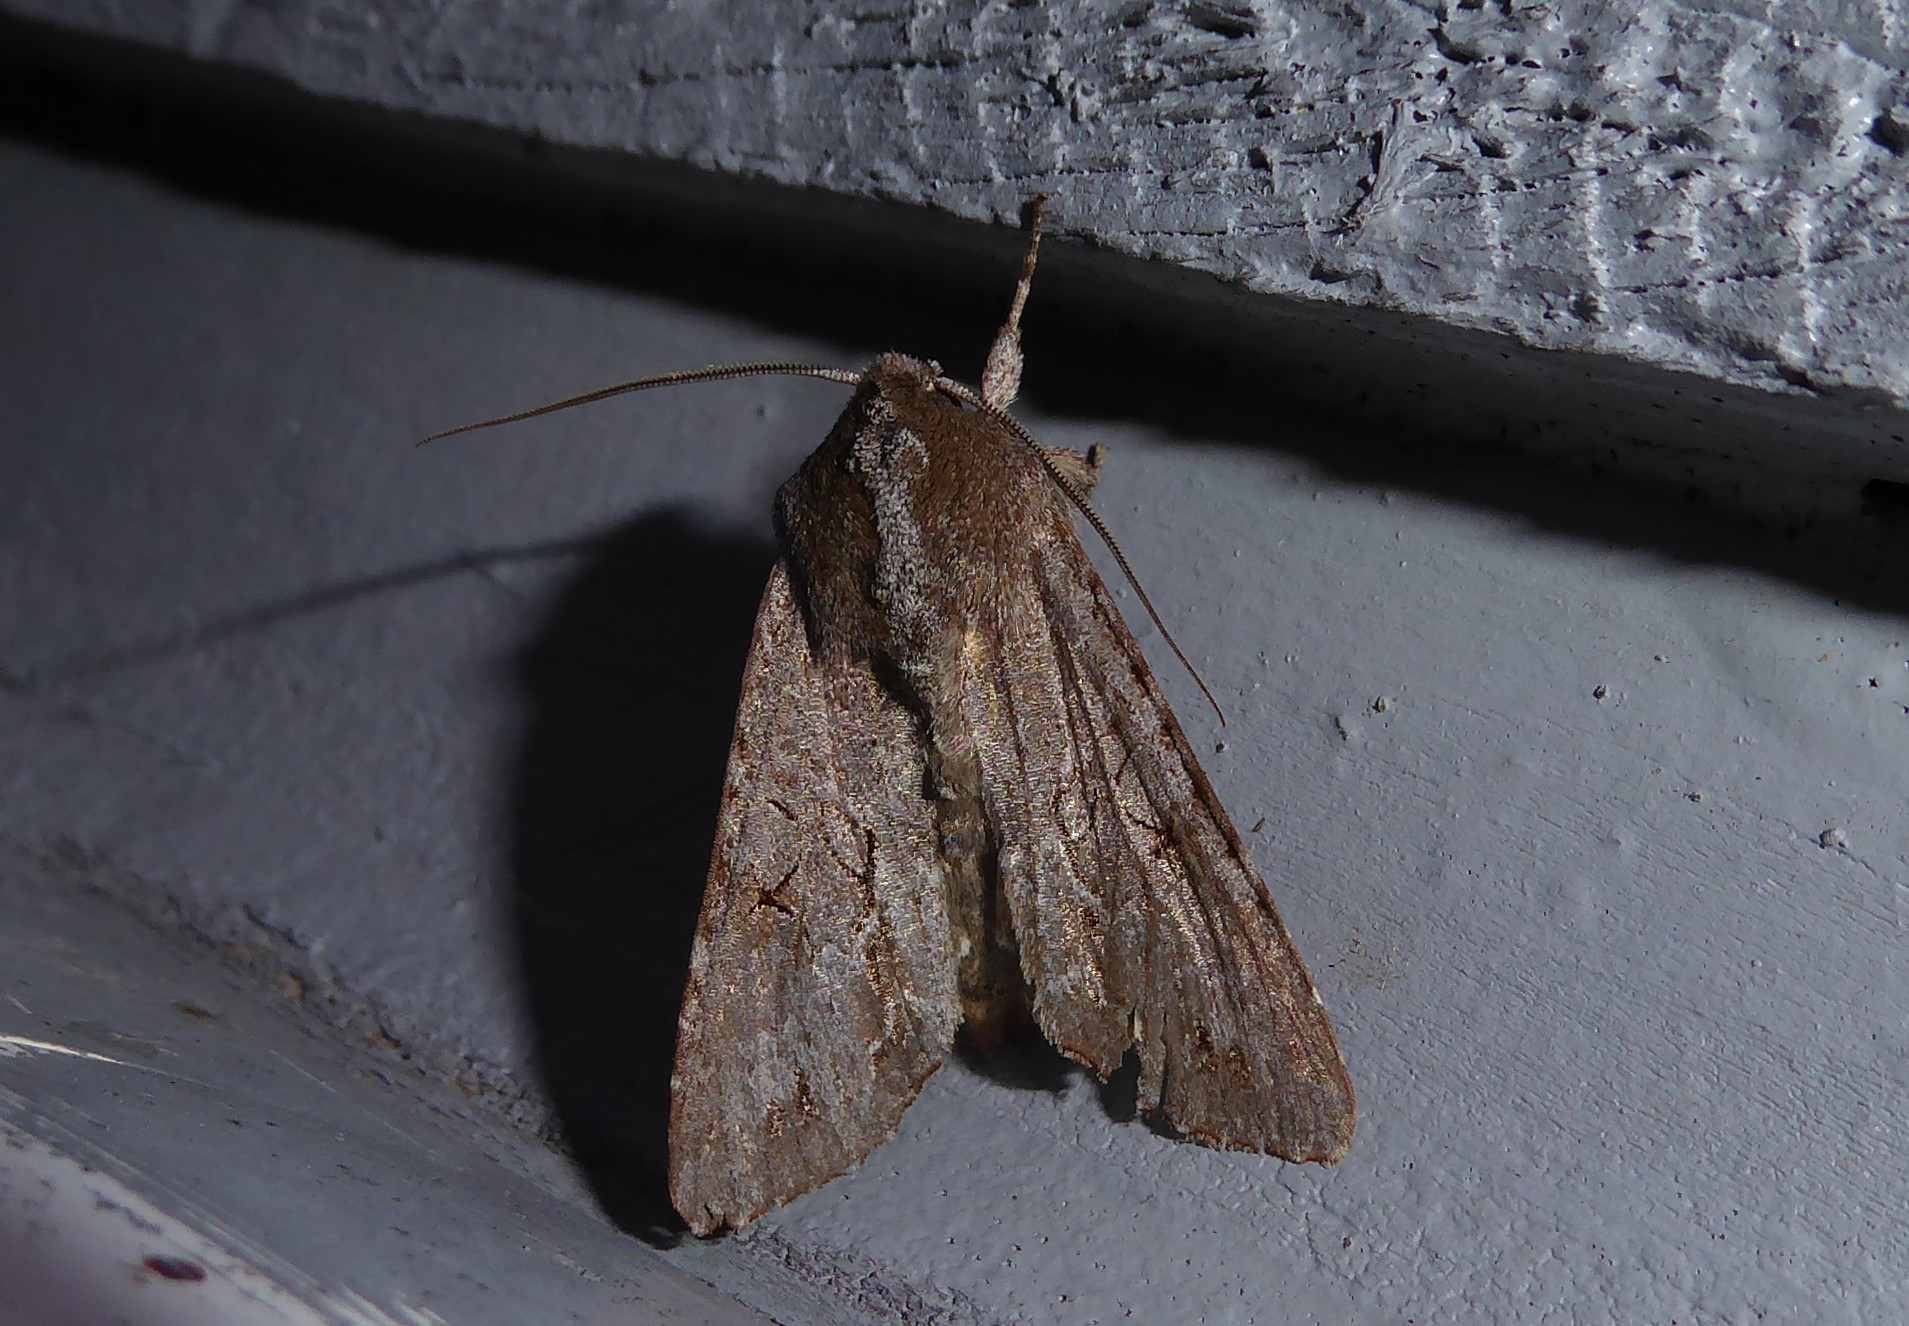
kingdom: Animalia
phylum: Arthropoda
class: Insecta
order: Lepidoptera
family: Noctuidae
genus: Ichneutica
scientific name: Ichneutica
